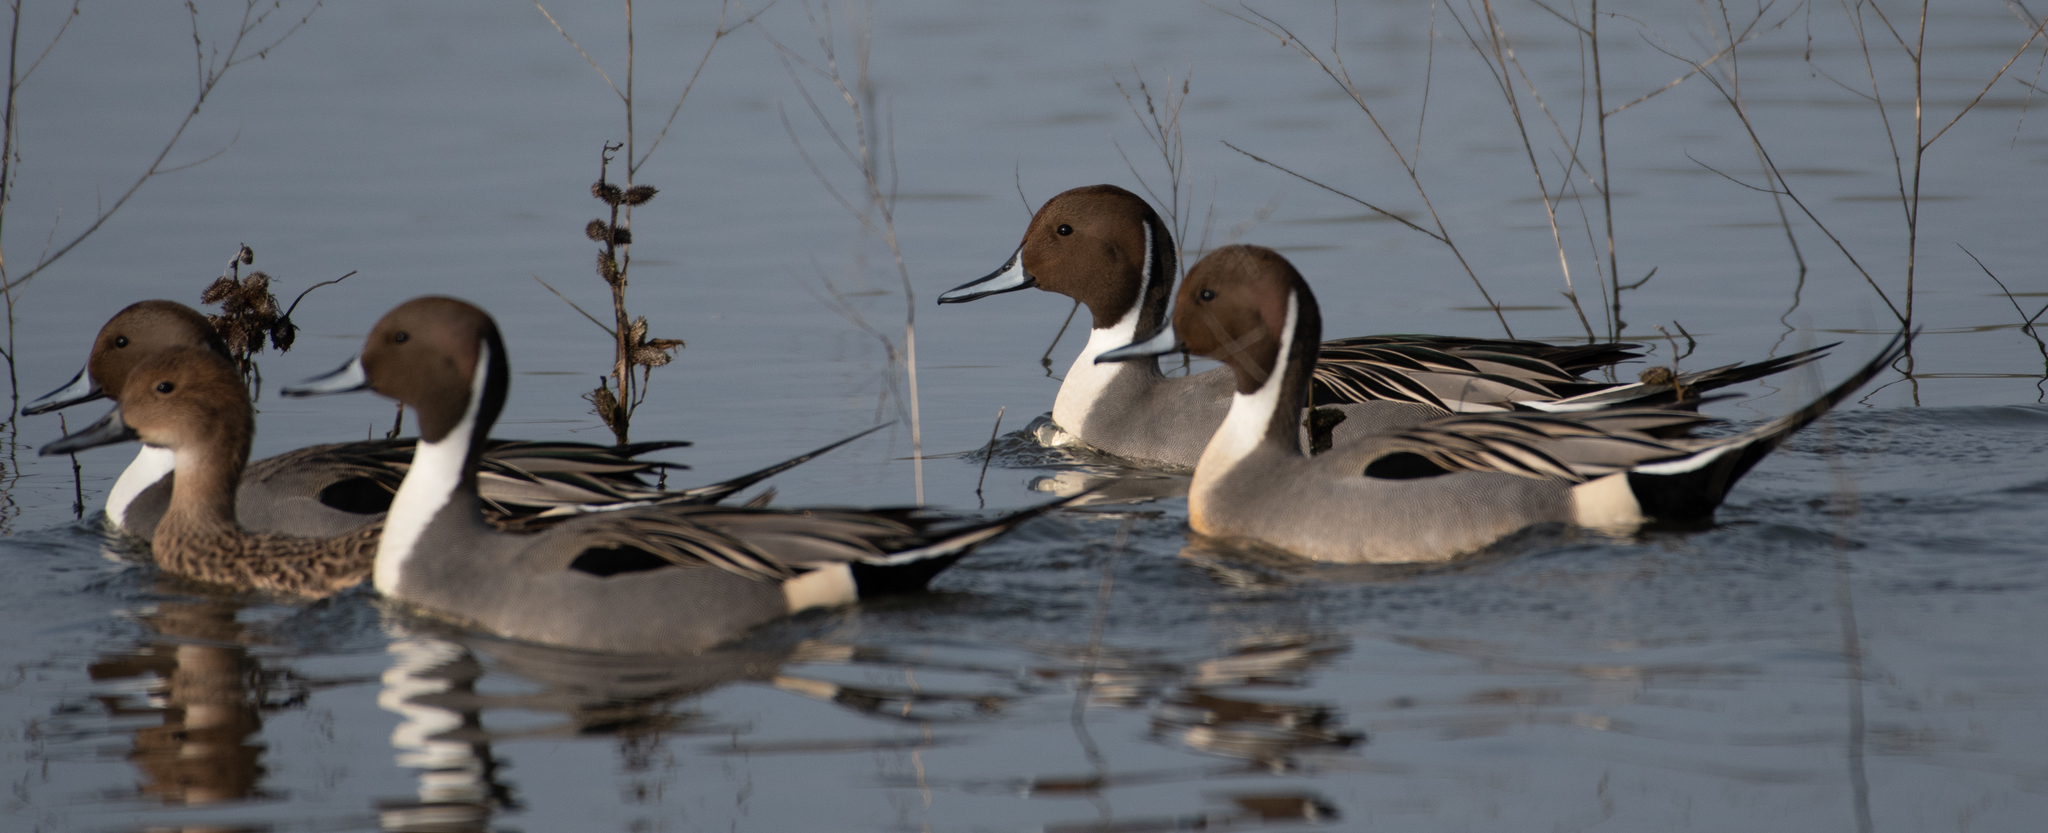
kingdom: Animalia
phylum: Chordata
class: Aves
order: Anseriformes
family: Anatidae
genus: Anas
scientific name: Anas acuta
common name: Northern pintail
